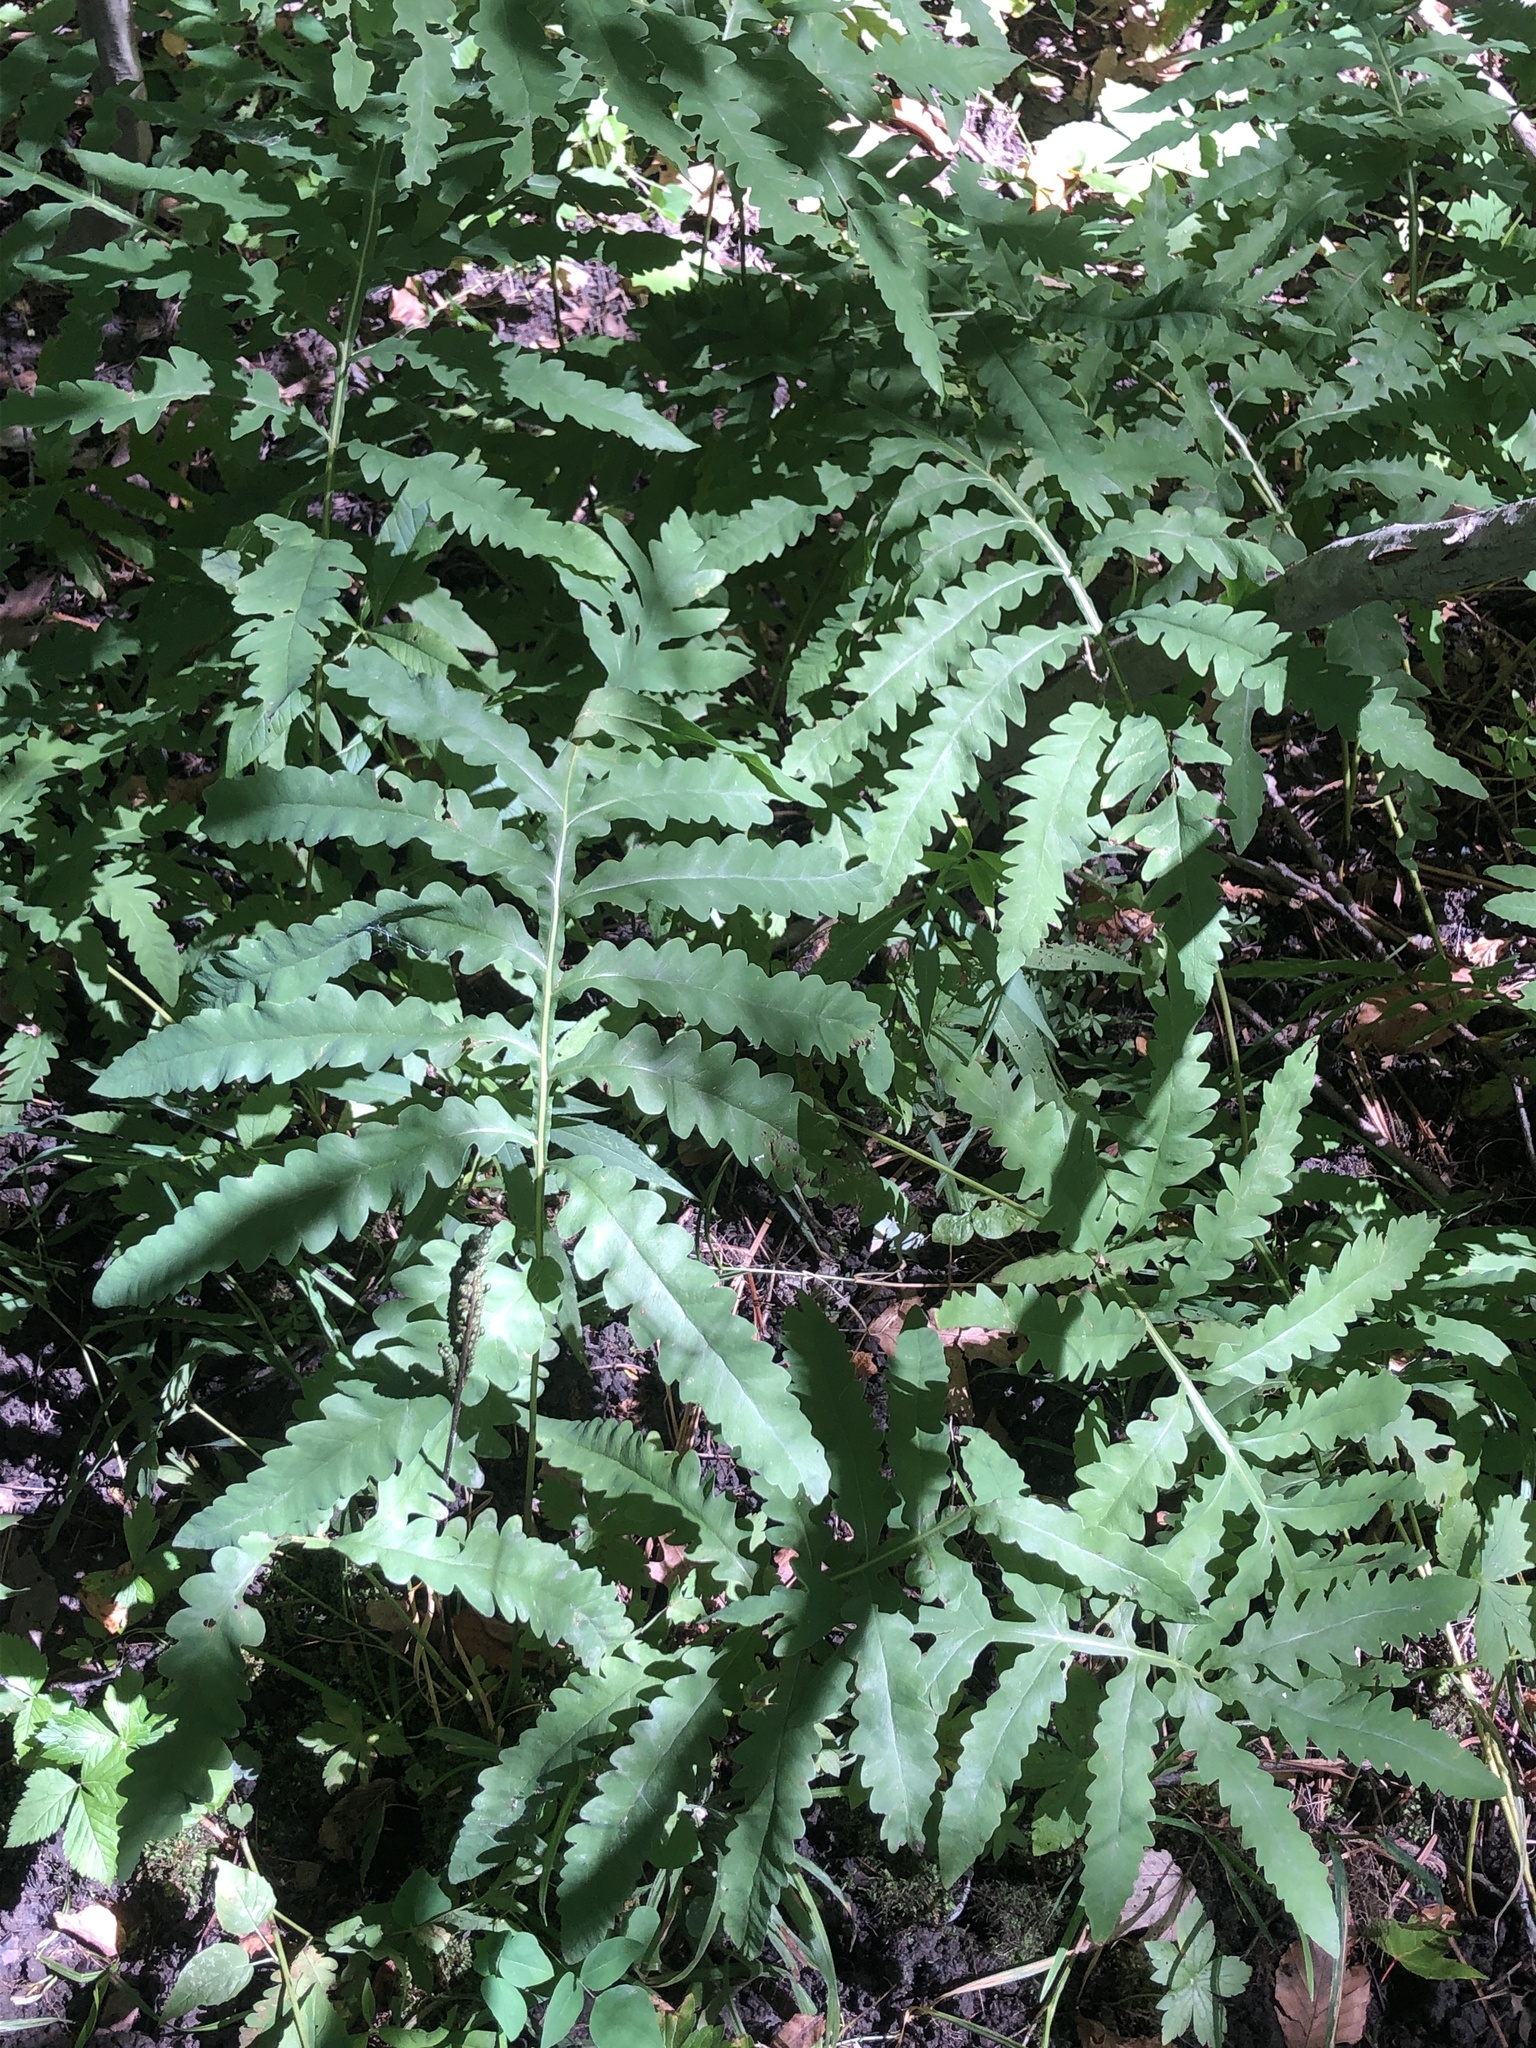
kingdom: Plantae
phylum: Tracheophyta
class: Polypodiopsida
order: Polypodiales
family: Onocleaceae
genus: Onoclea
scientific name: Onoclea sensibilis
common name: Sensitive fern
